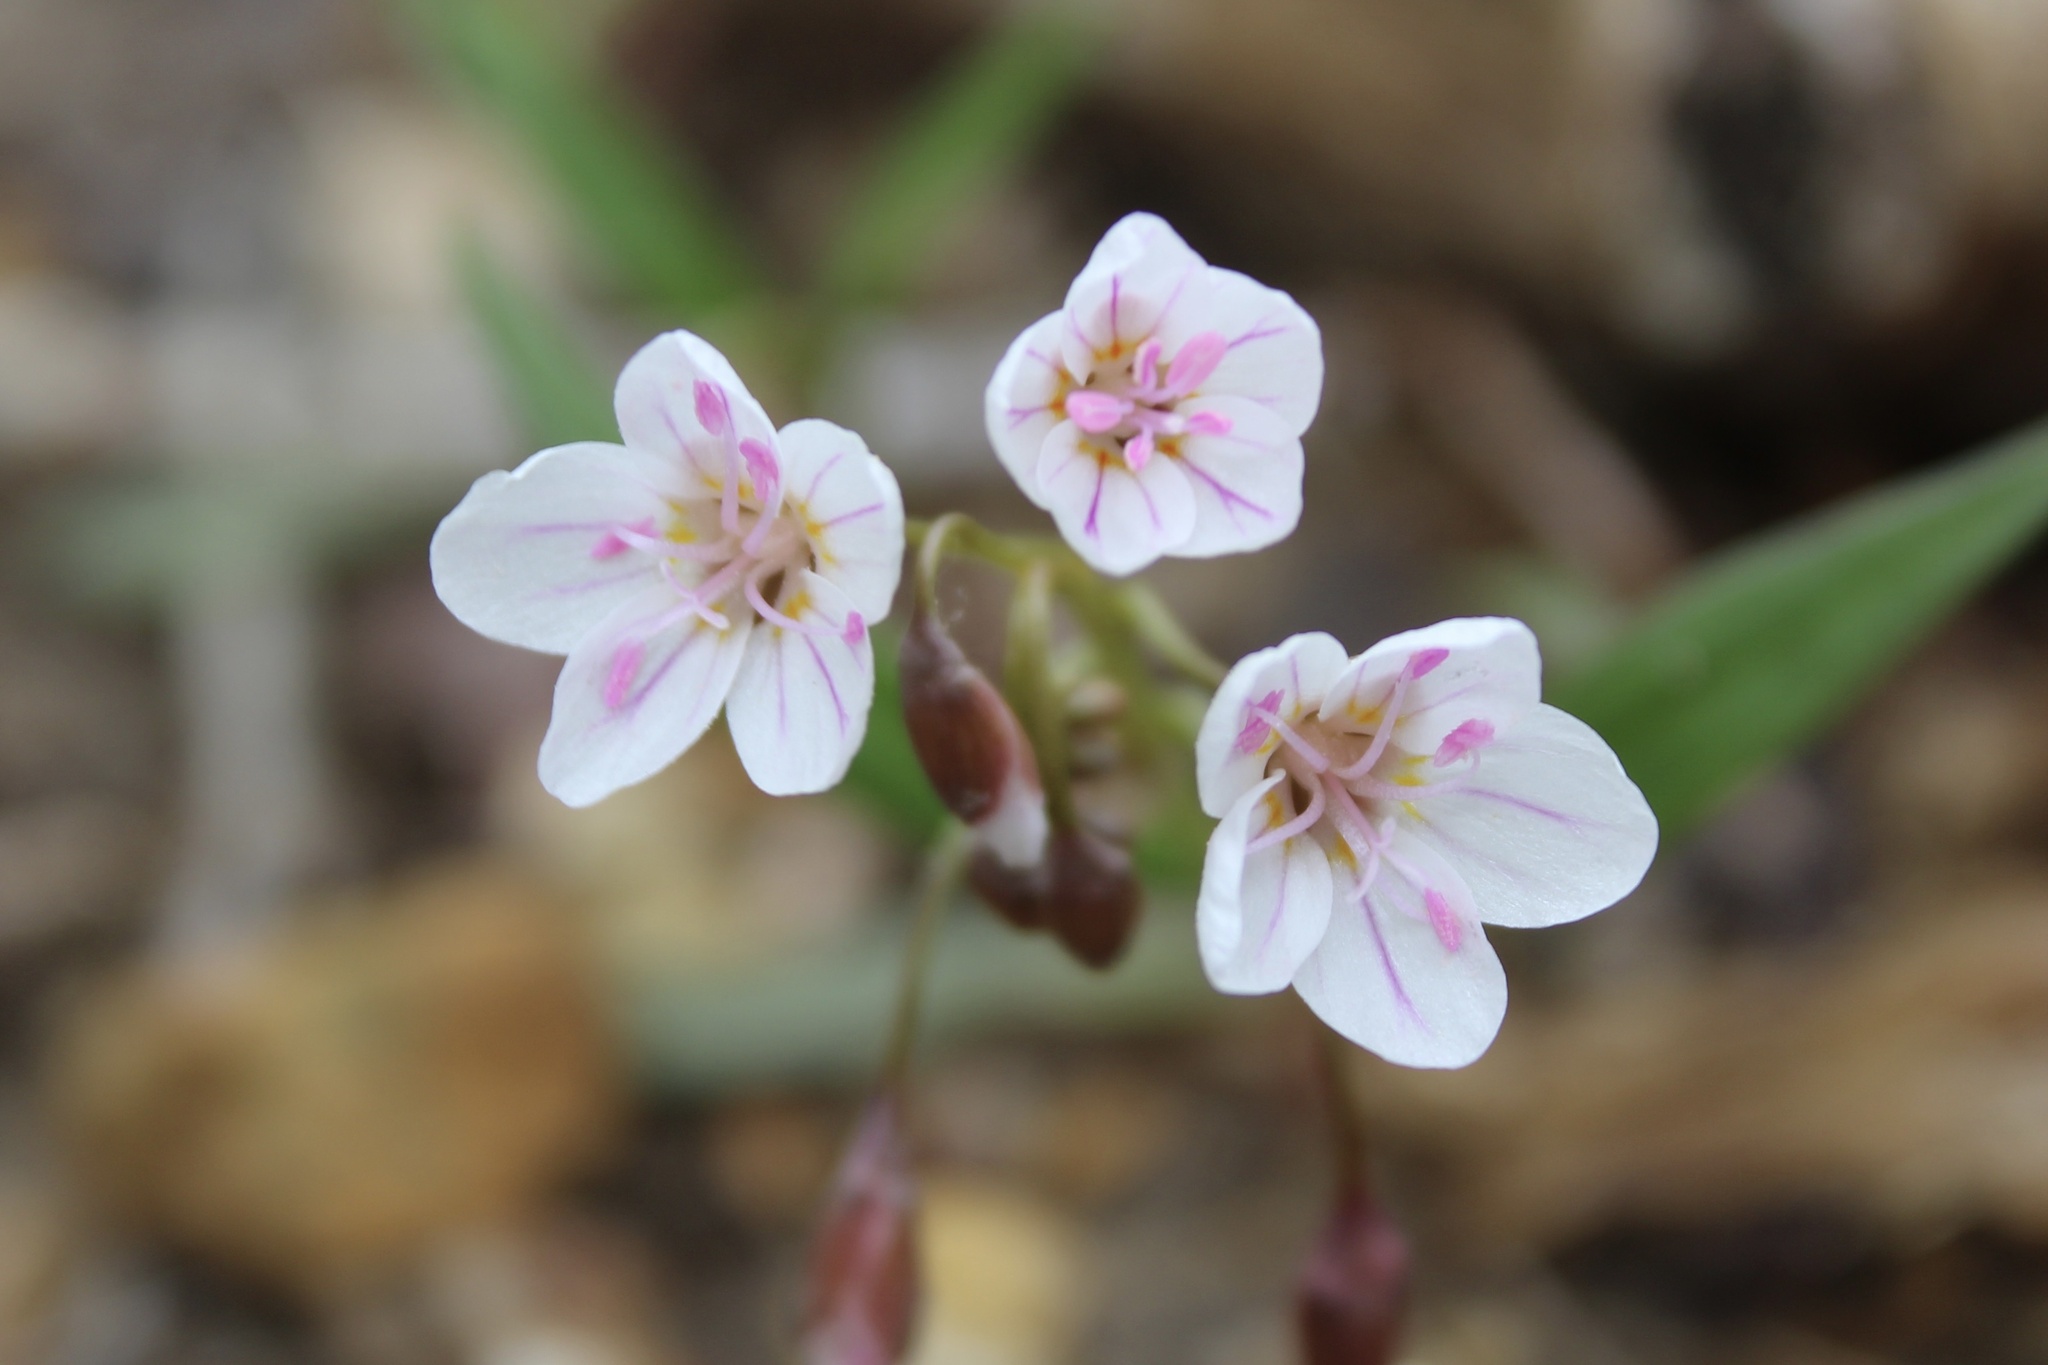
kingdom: Plantae
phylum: Tracheophyta
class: Magnoliopsida
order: Caryophyllales
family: Montiaceae
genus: Claytonia
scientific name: Claytonia virginica
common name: Virginia springbeauty
